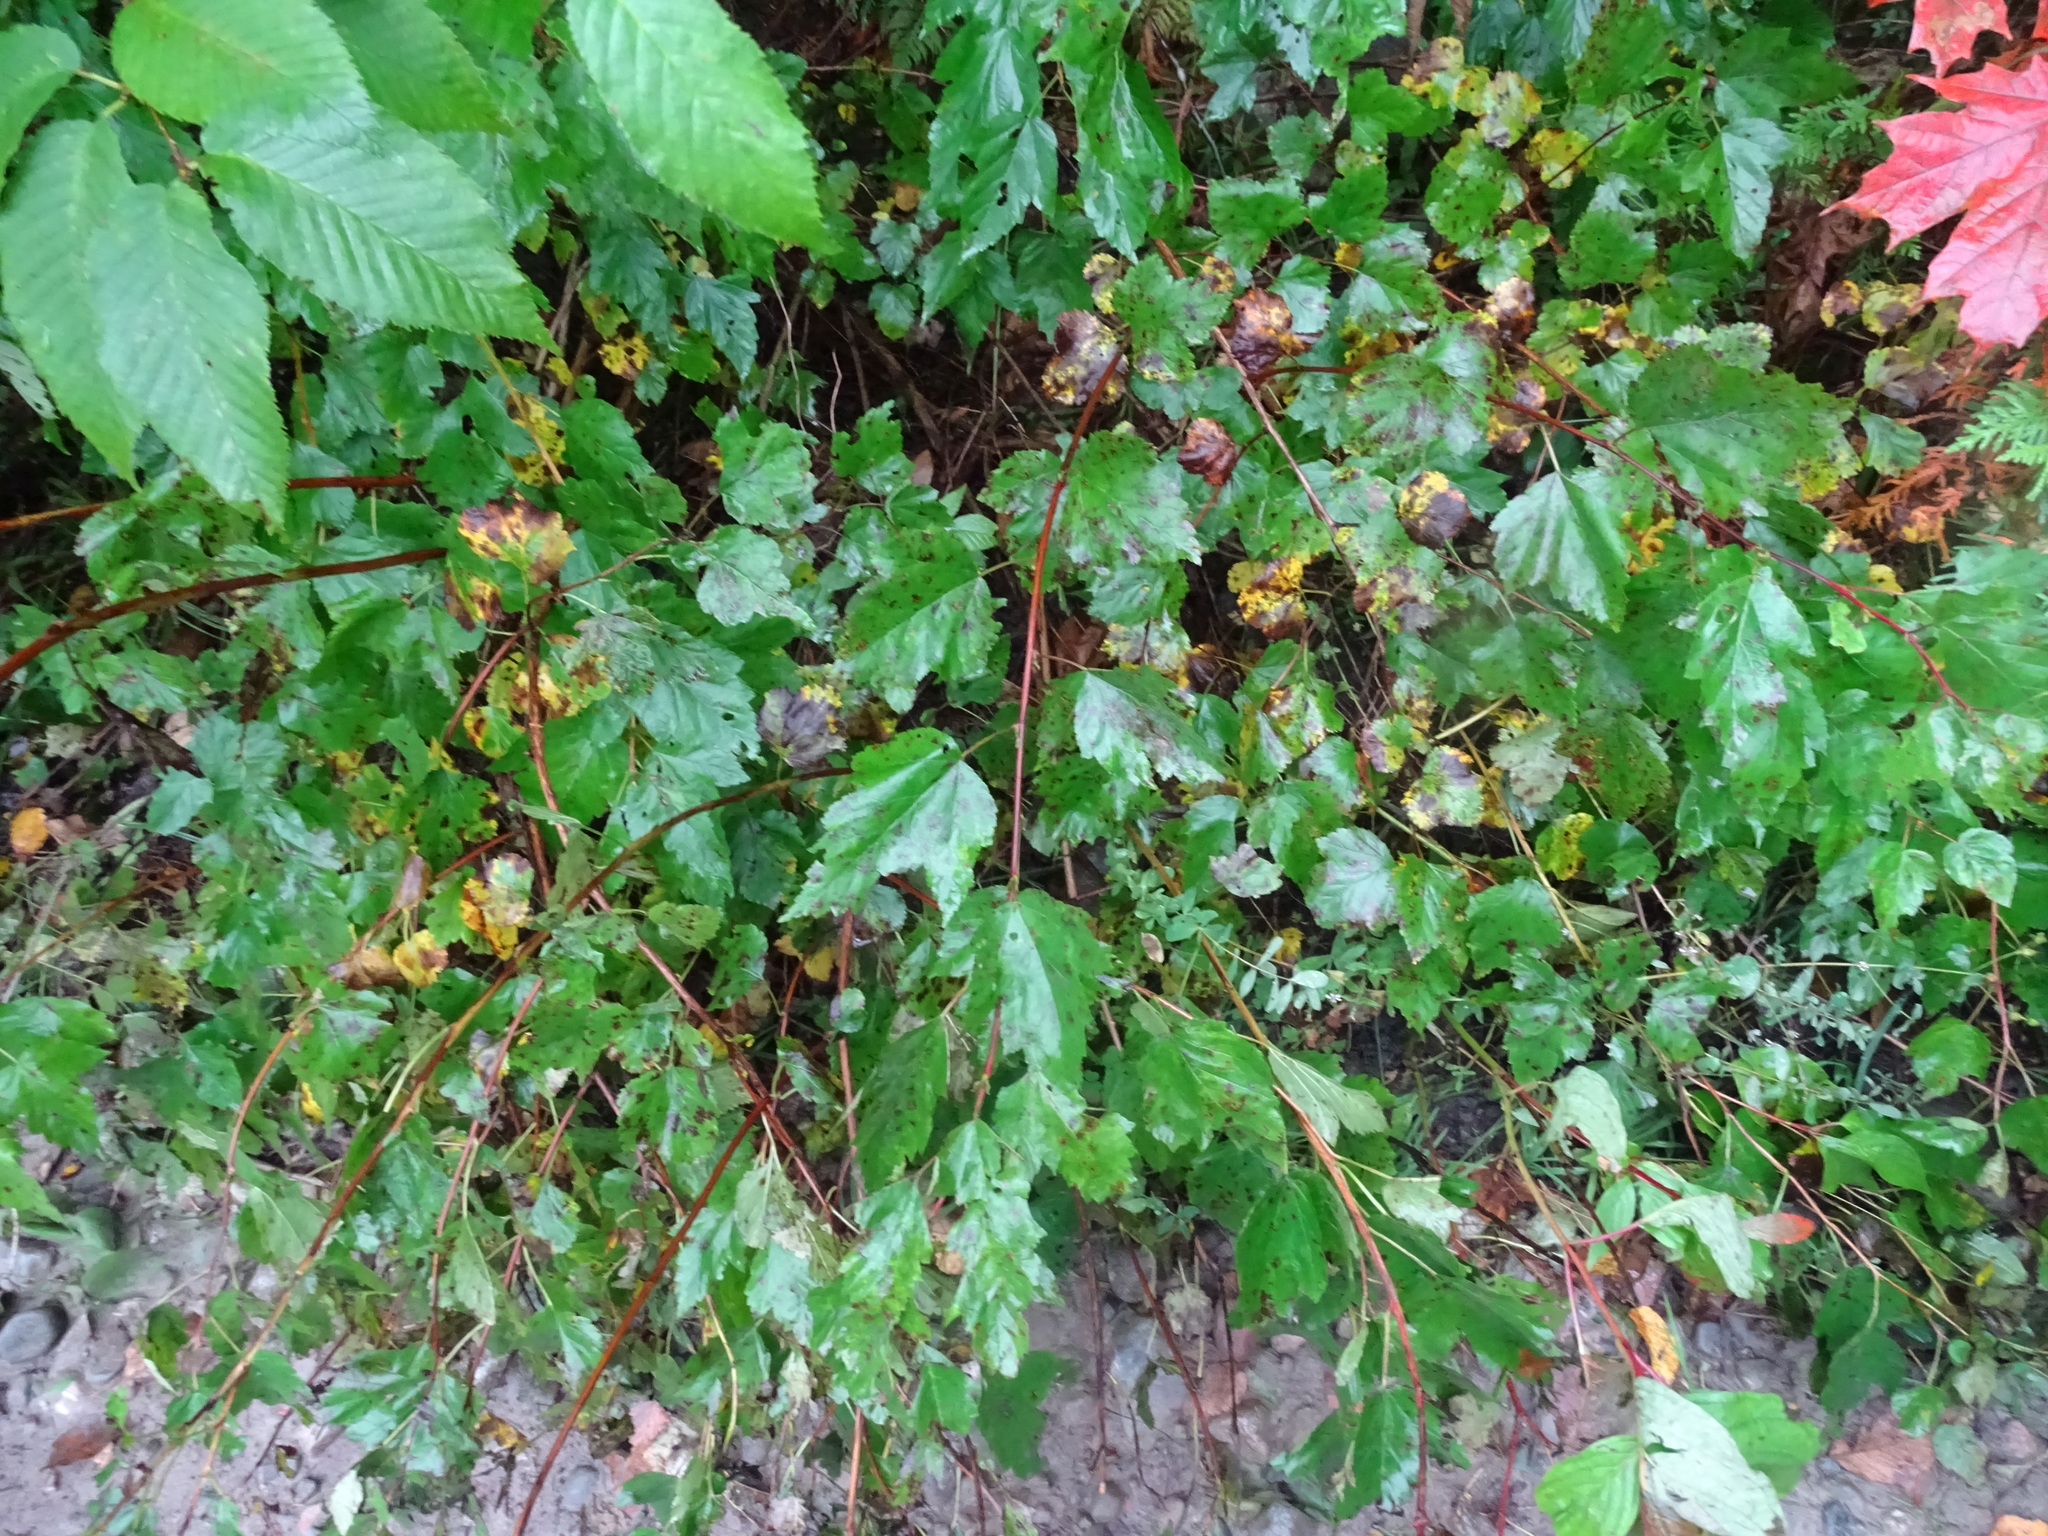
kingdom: Plantae
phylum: Tracheophyta
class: Magnoliopsida
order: Rosales
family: Rosaceae
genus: Physocarpus
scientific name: Physocarpus opulifolius
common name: Ninebark
